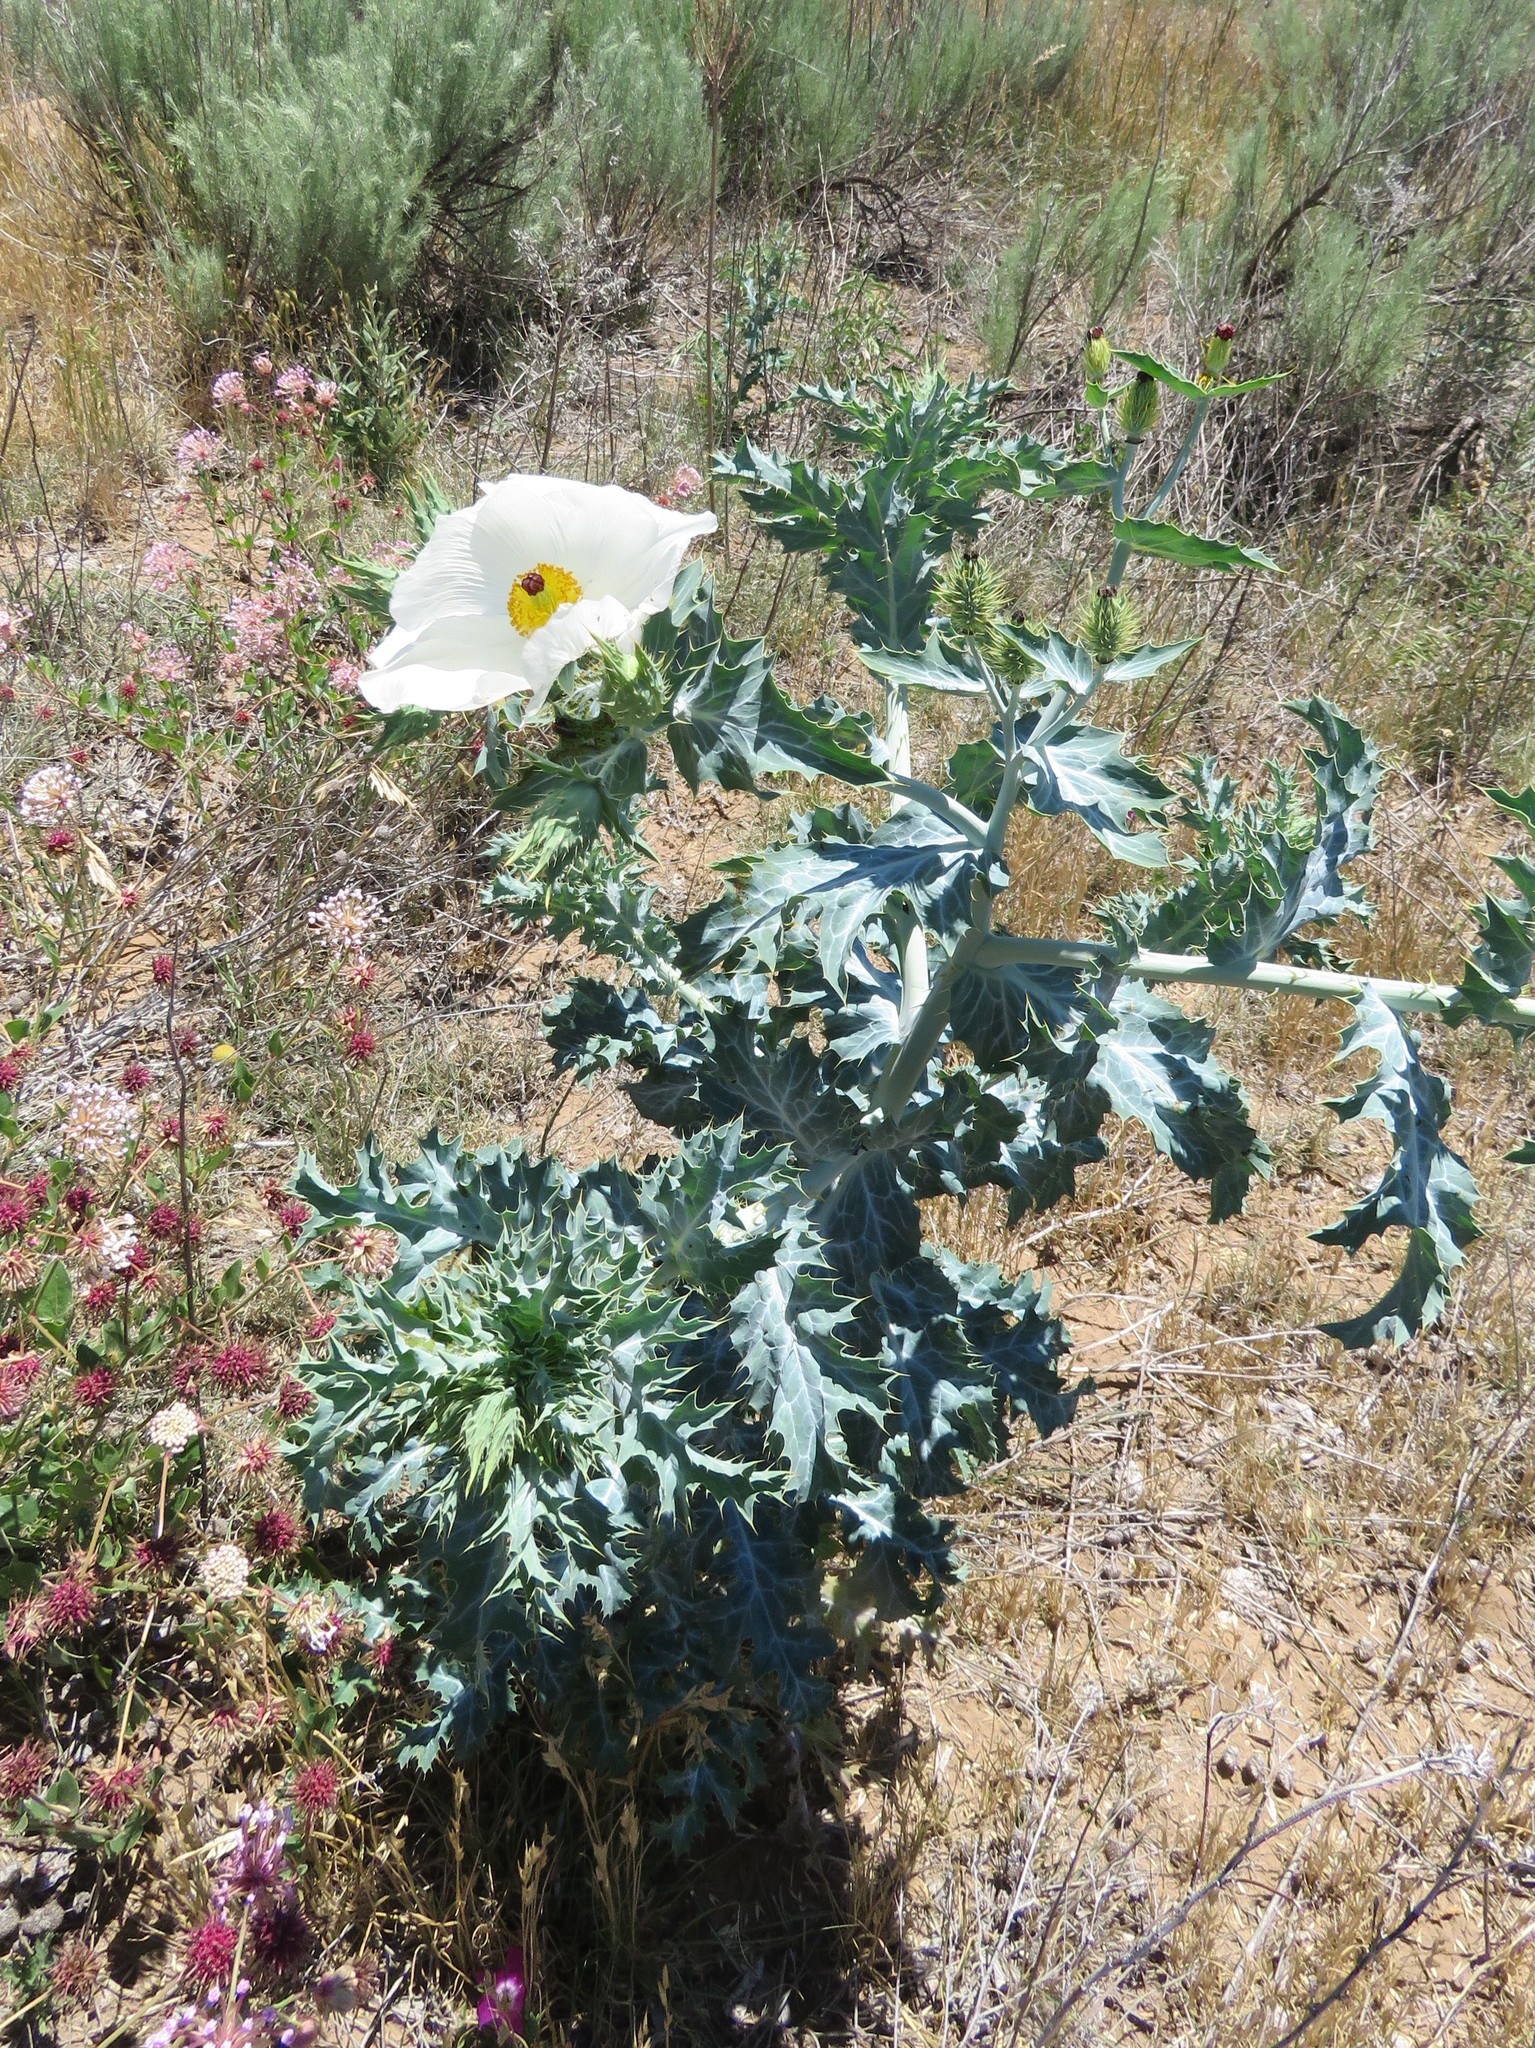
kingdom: Plantae
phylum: Tracheophyta
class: Magnoliopsida
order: Ranunculales
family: Papaveraceae
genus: Argemone
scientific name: Argemone polyanthemos
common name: Plains prickly-poppy
